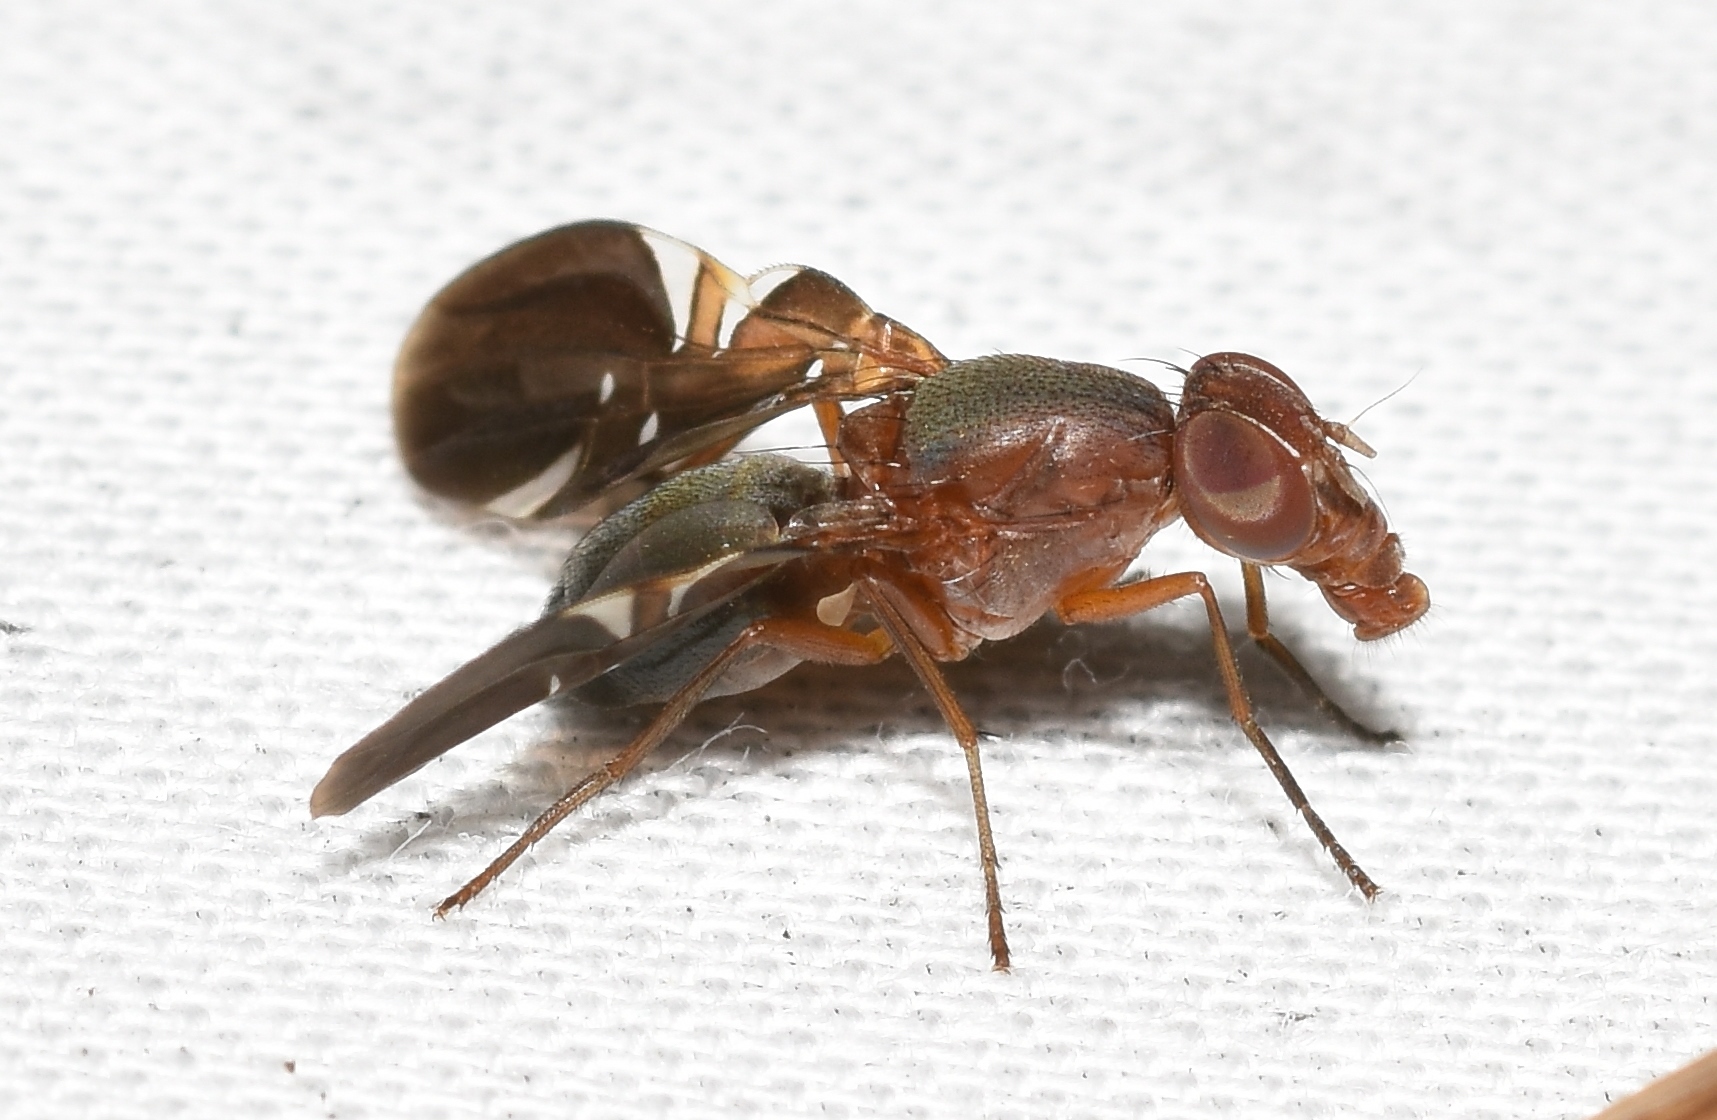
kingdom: Animalia
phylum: Arthropoda
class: Insecta
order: Diptera
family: Ulidiidae
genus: Delphinia
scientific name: Delphinia picta
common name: Common picture-winged fly
